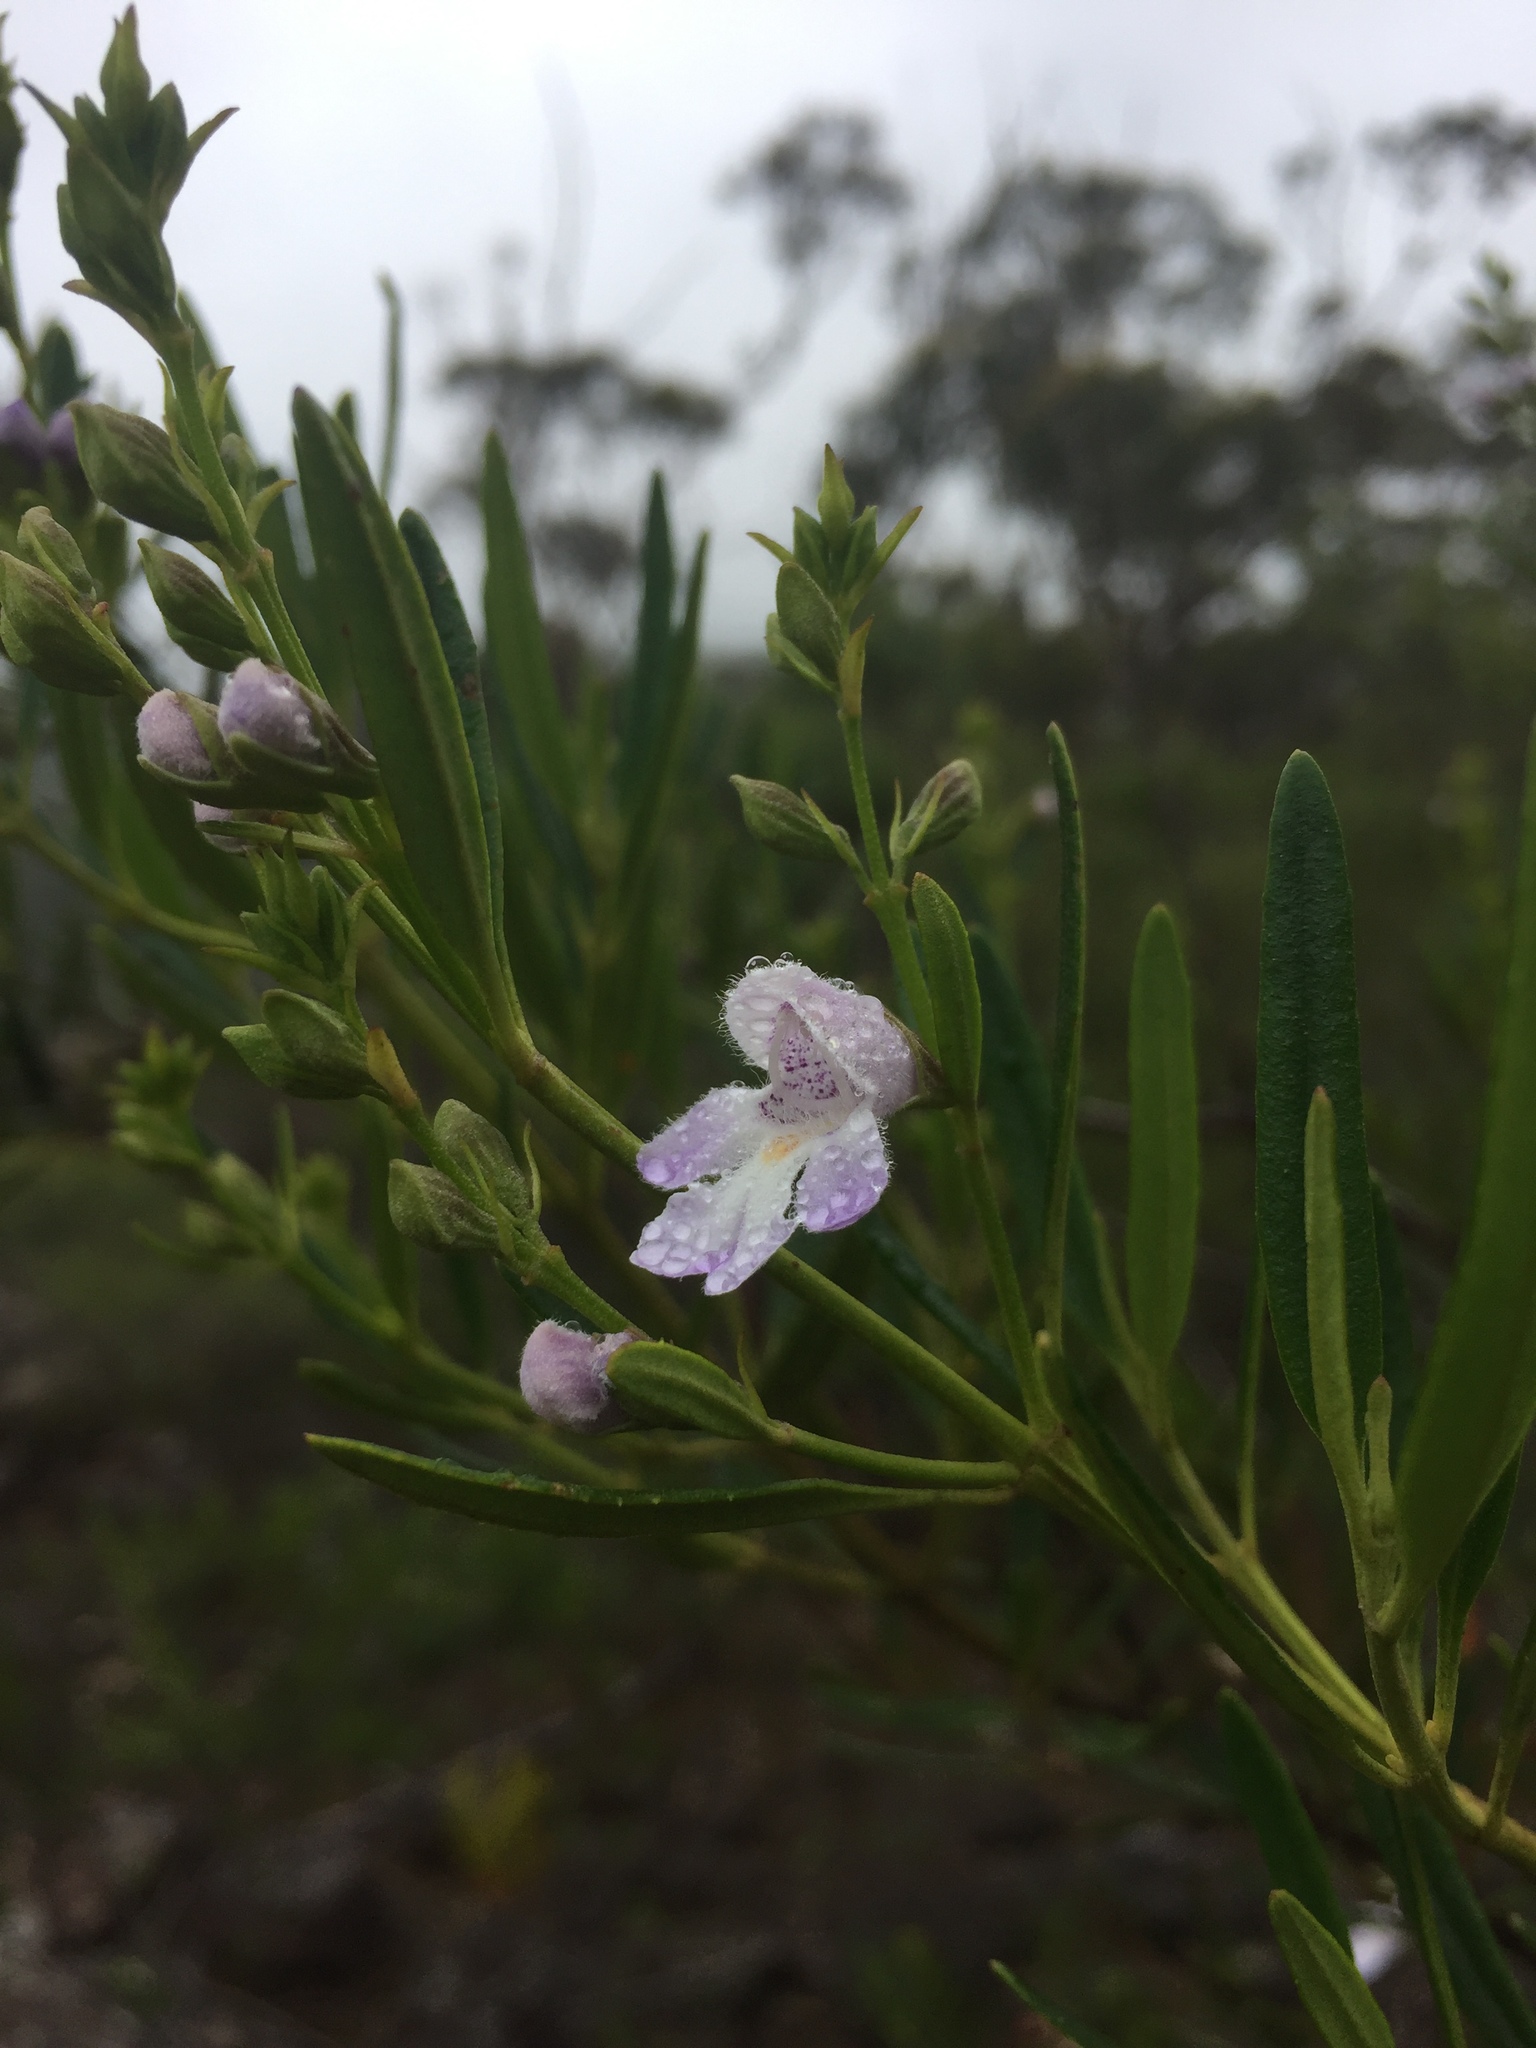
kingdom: Plantae
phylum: Tracheophyta
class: Magnoliopsida
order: Lamiales
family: Lamiaceae
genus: Prostanthera
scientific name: Prostanthera tallowa
